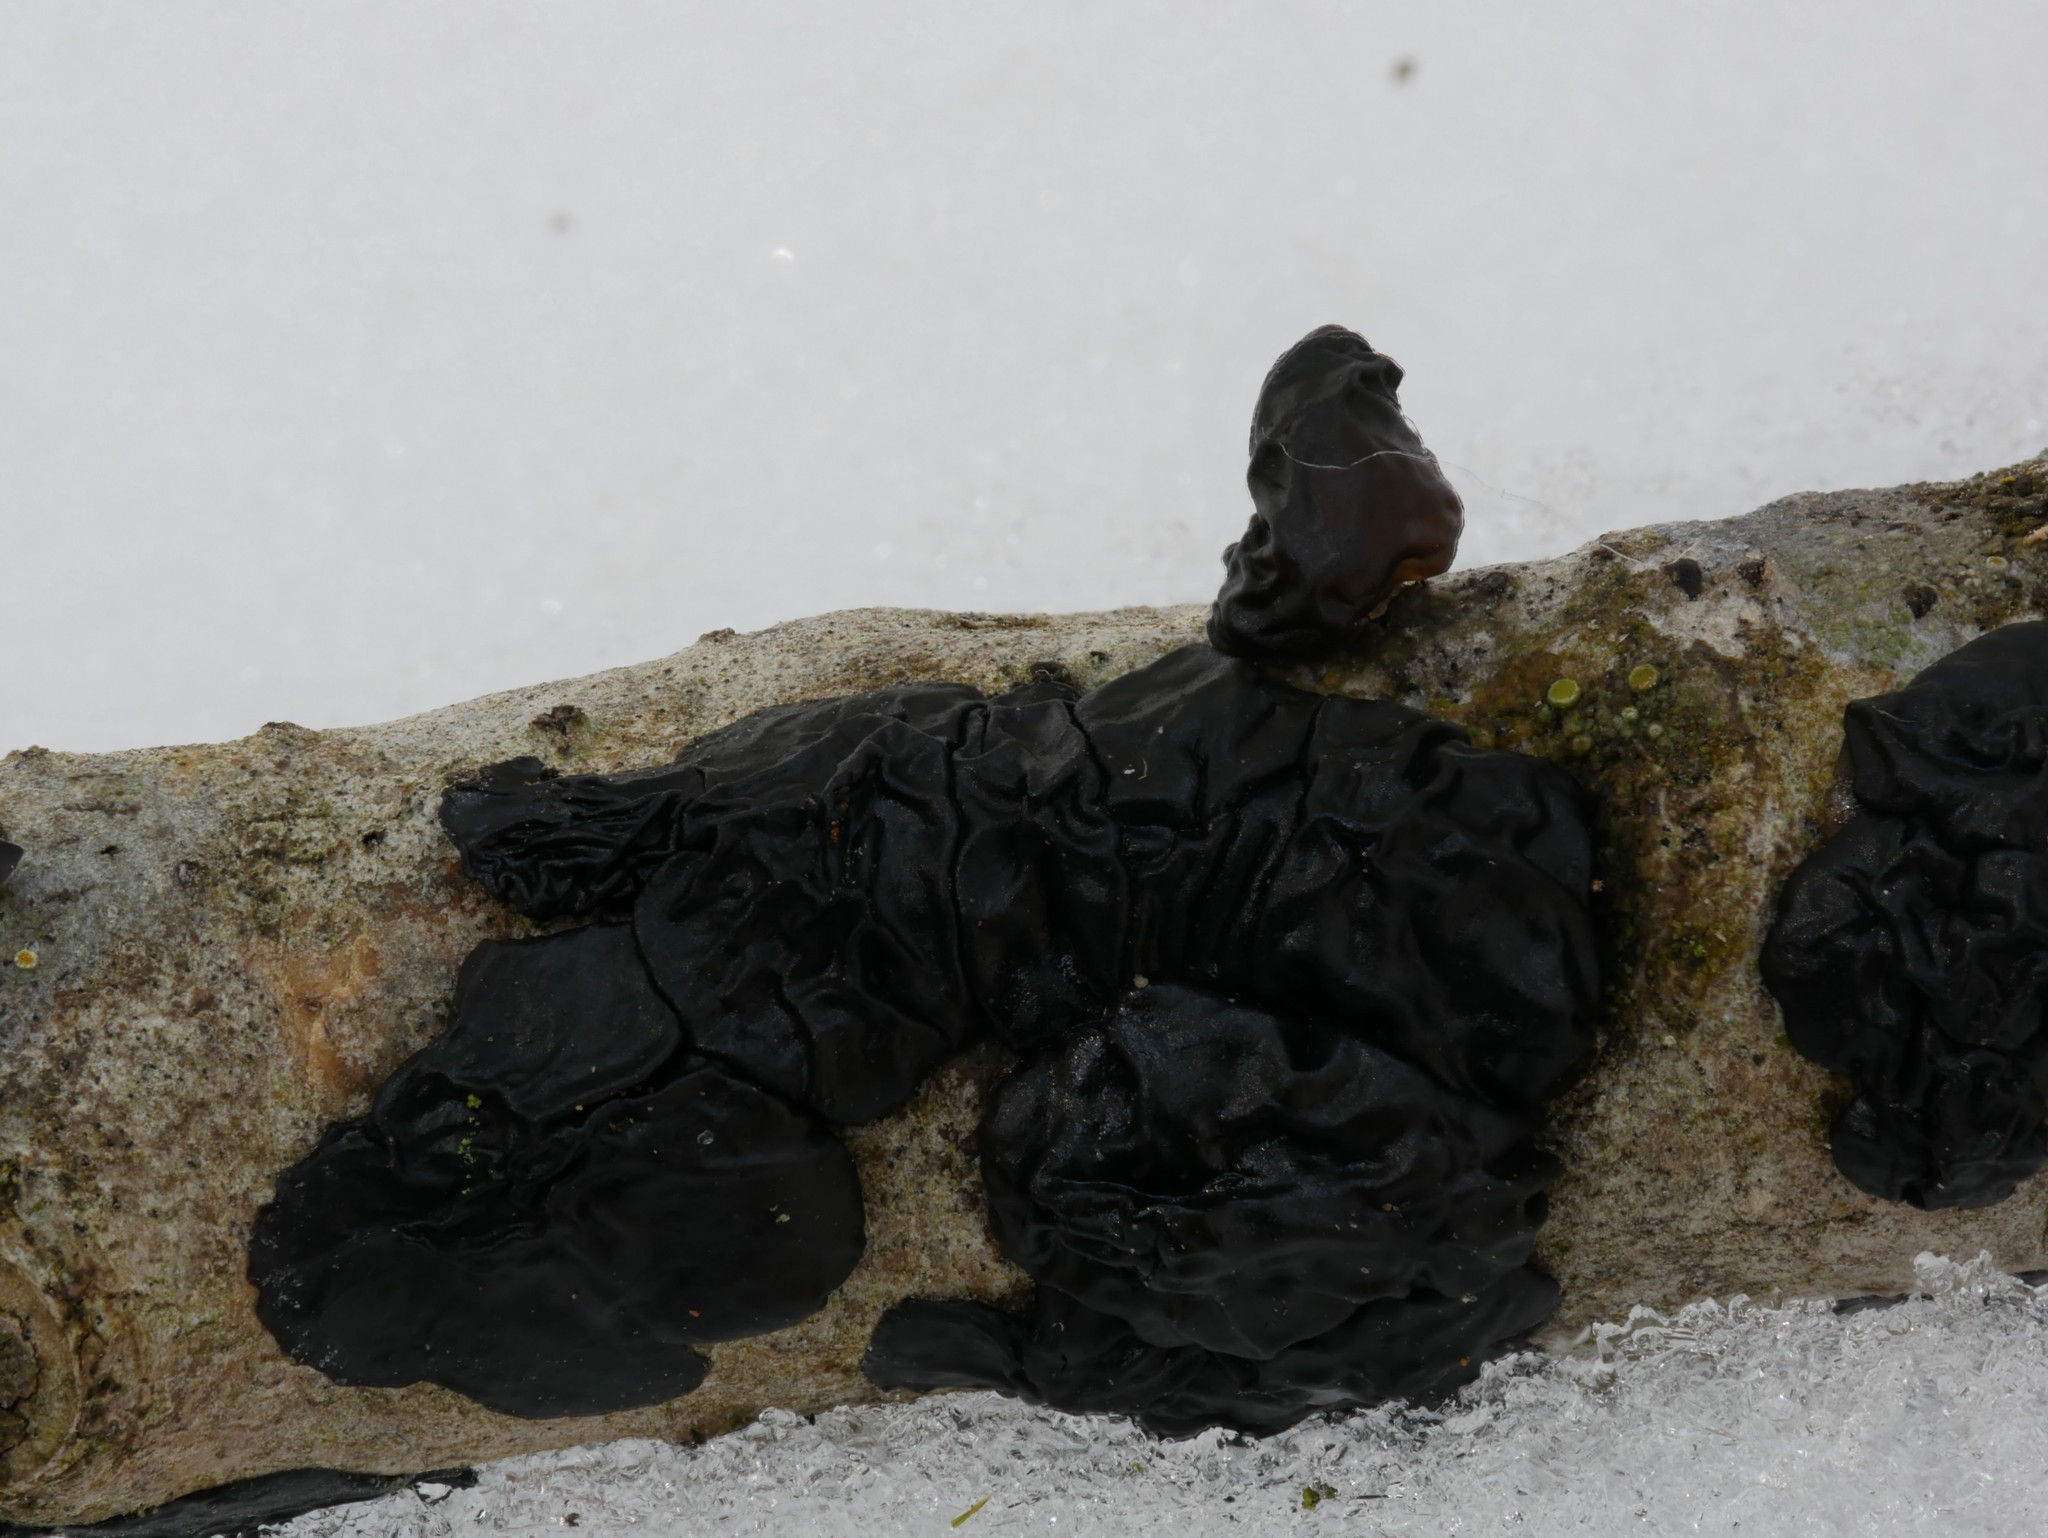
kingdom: Fungi
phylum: Basidiomycota
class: Agaricomycetes
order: Auriculariales
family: Auriculariaceae
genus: Exidia
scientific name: Exidia glandulosa
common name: Witches' butter
